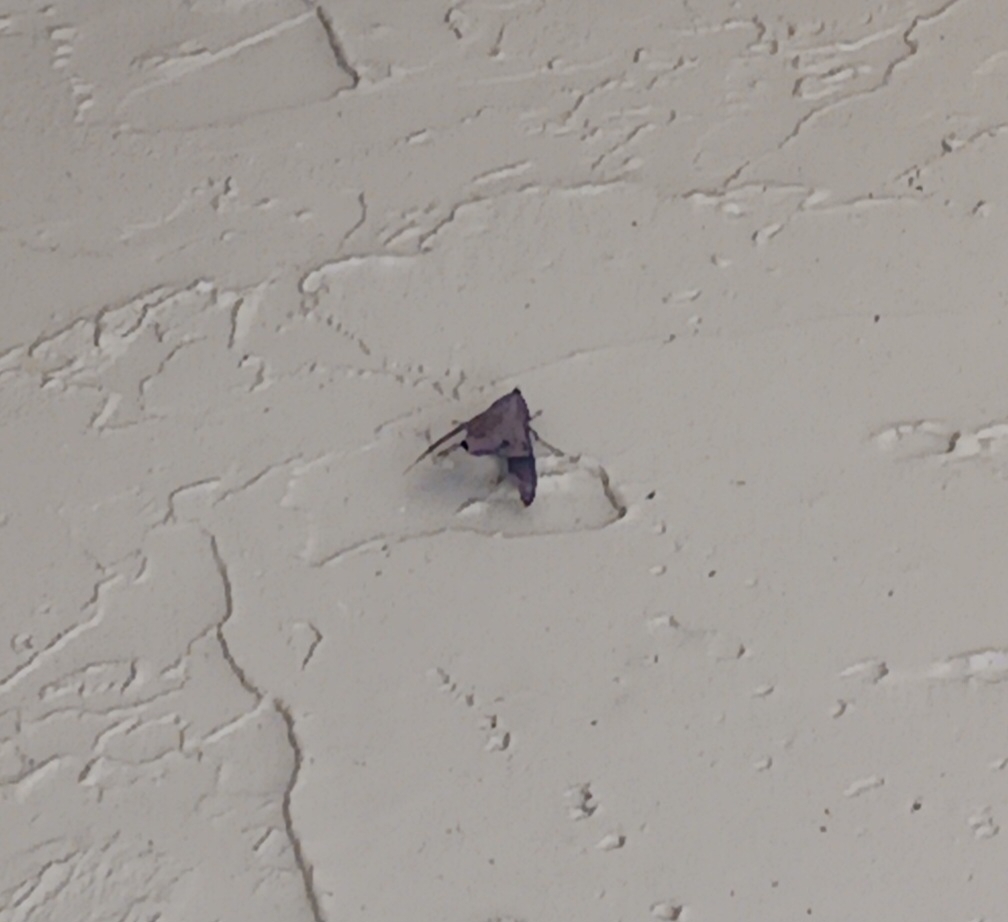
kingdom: Animalia
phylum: Arthropoda
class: Insecta
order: Lepidoptera
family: Sphingidae
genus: Enyo
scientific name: Enyo lugubris
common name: Mournful sphinx
